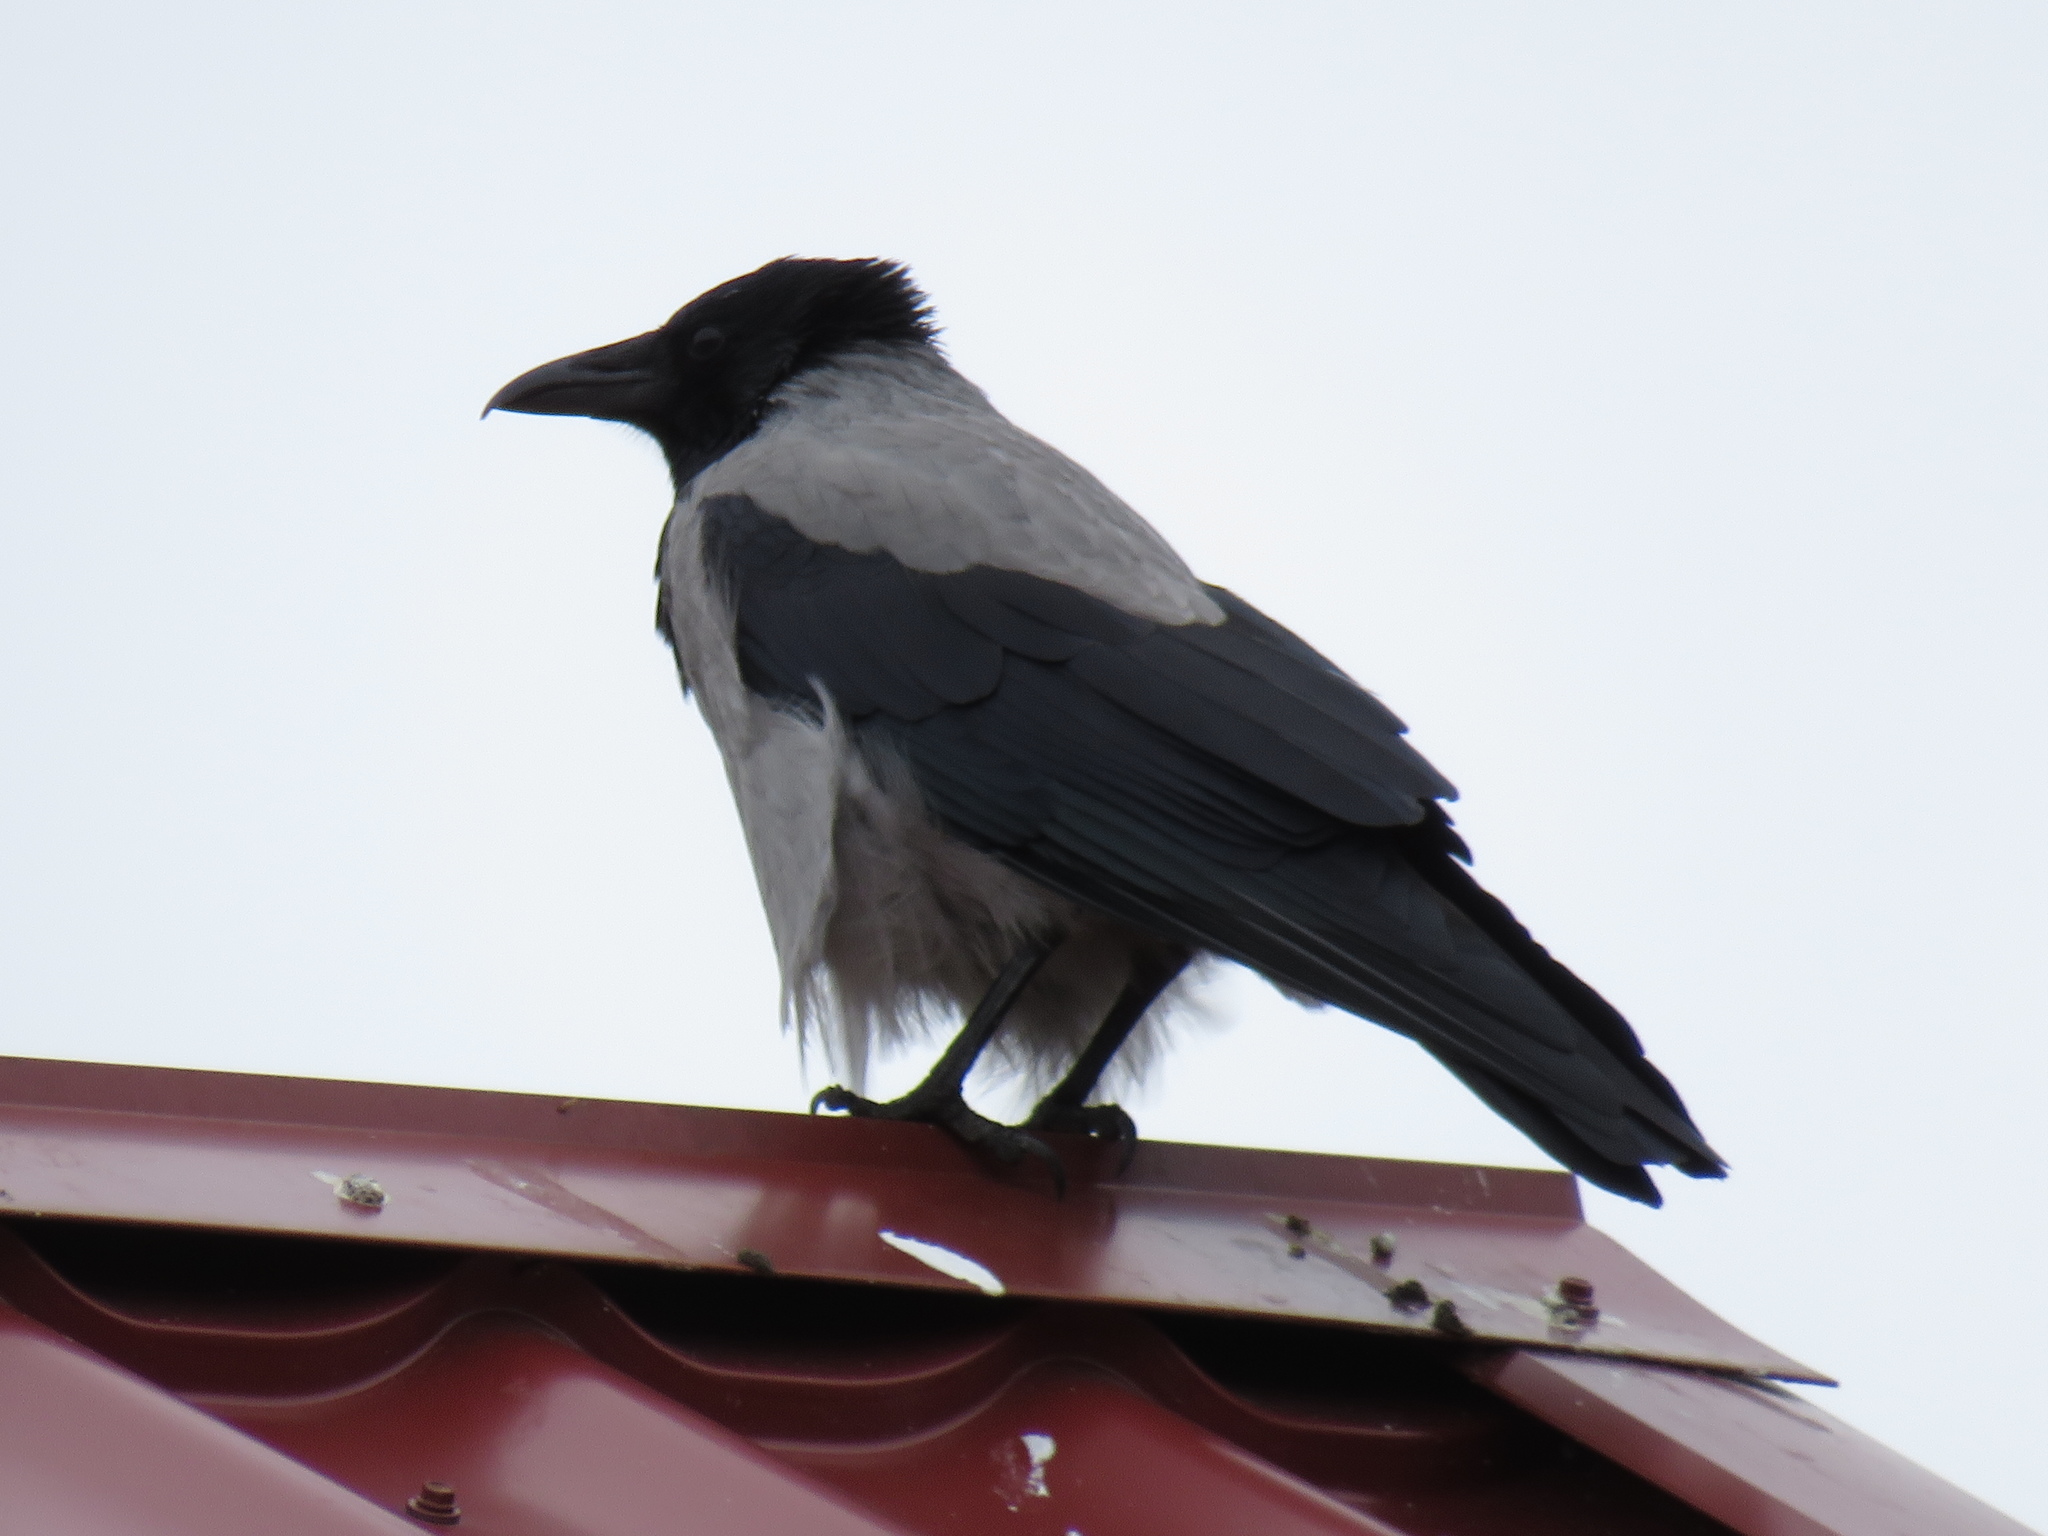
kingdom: Animalia
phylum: Chordata
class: Aves
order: Passeriformes
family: Corvidae
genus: Corvus
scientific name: Corvus cornix
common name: Hooded crow
